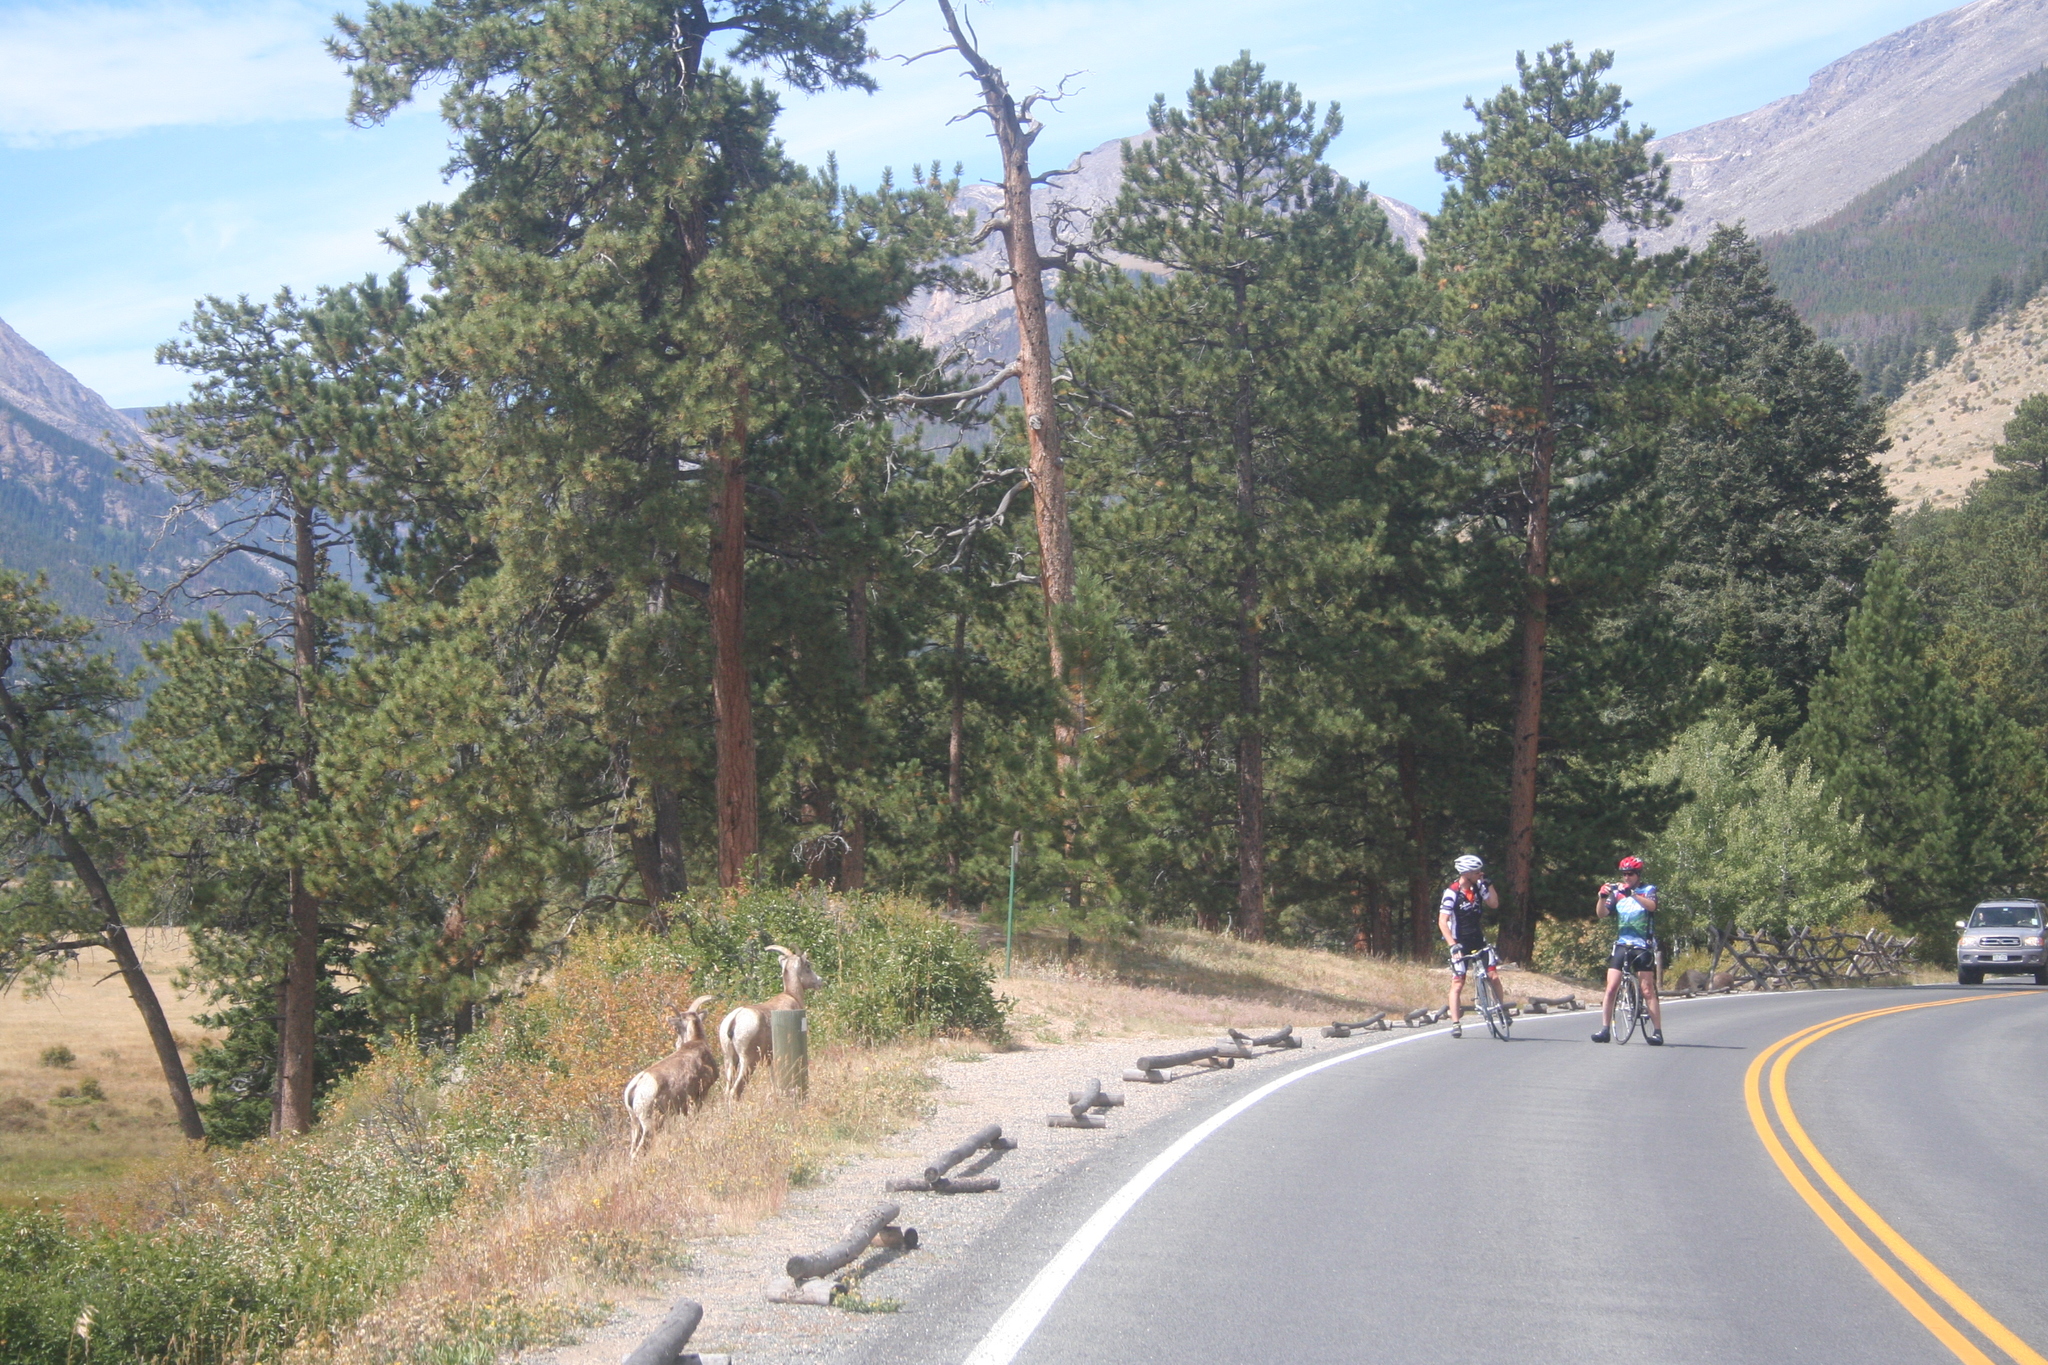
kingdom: Animalia
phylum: Chordata
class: Mammalia
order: Artiodactyla
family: Bovidae
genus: Ovis
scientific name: Ovis canadensis
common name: Bighorn sheep
